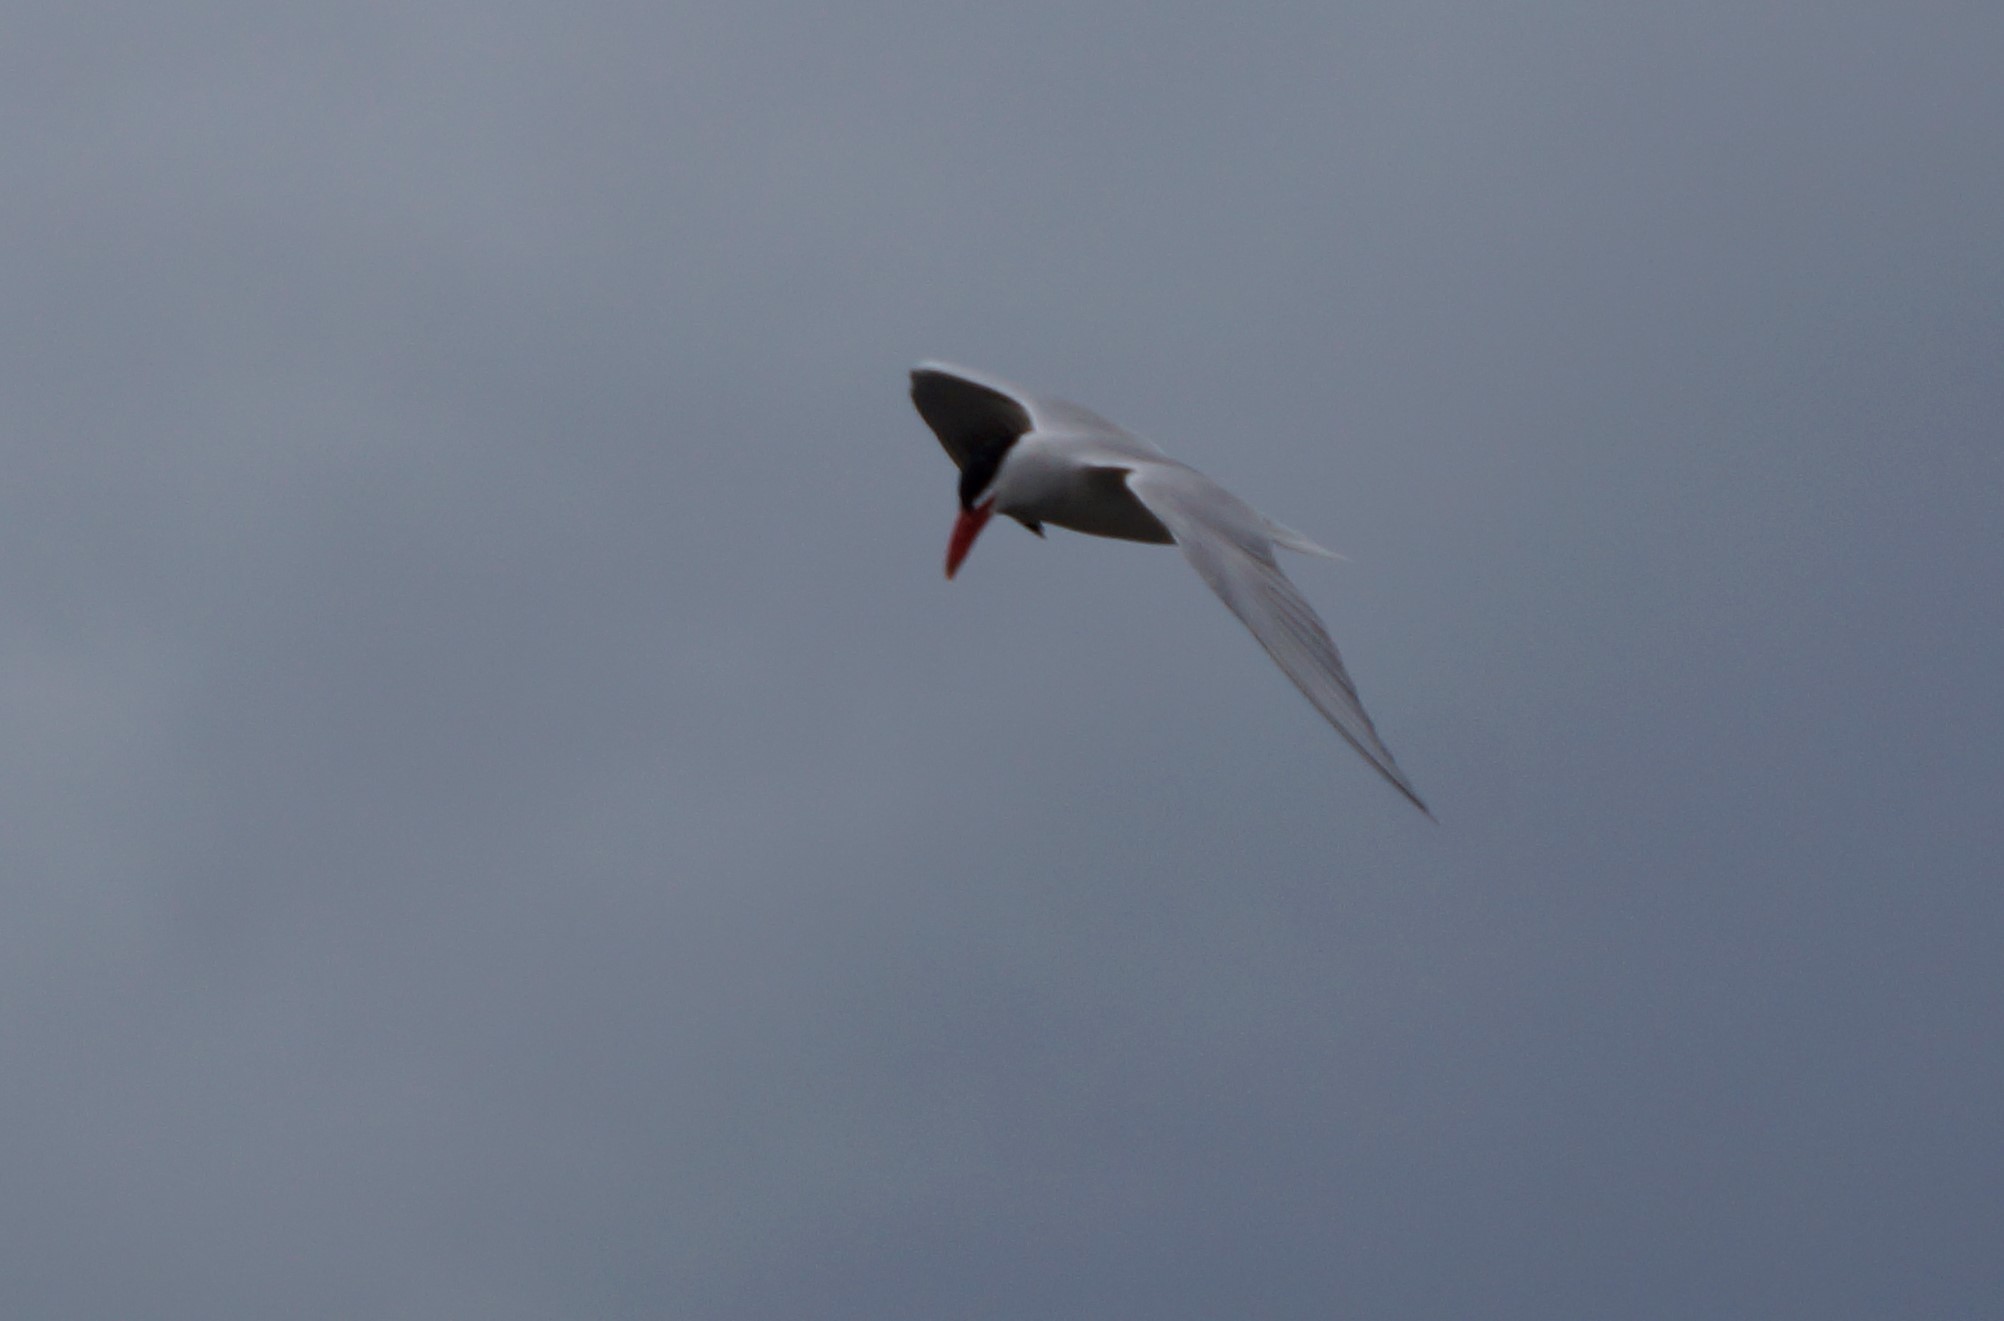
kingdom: Animalia
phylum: Chordata
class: Aves
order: Charadriiformes
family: Laridae
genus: Hydroprogne
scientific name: Hydroprogne caspia
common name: Caspian tern
